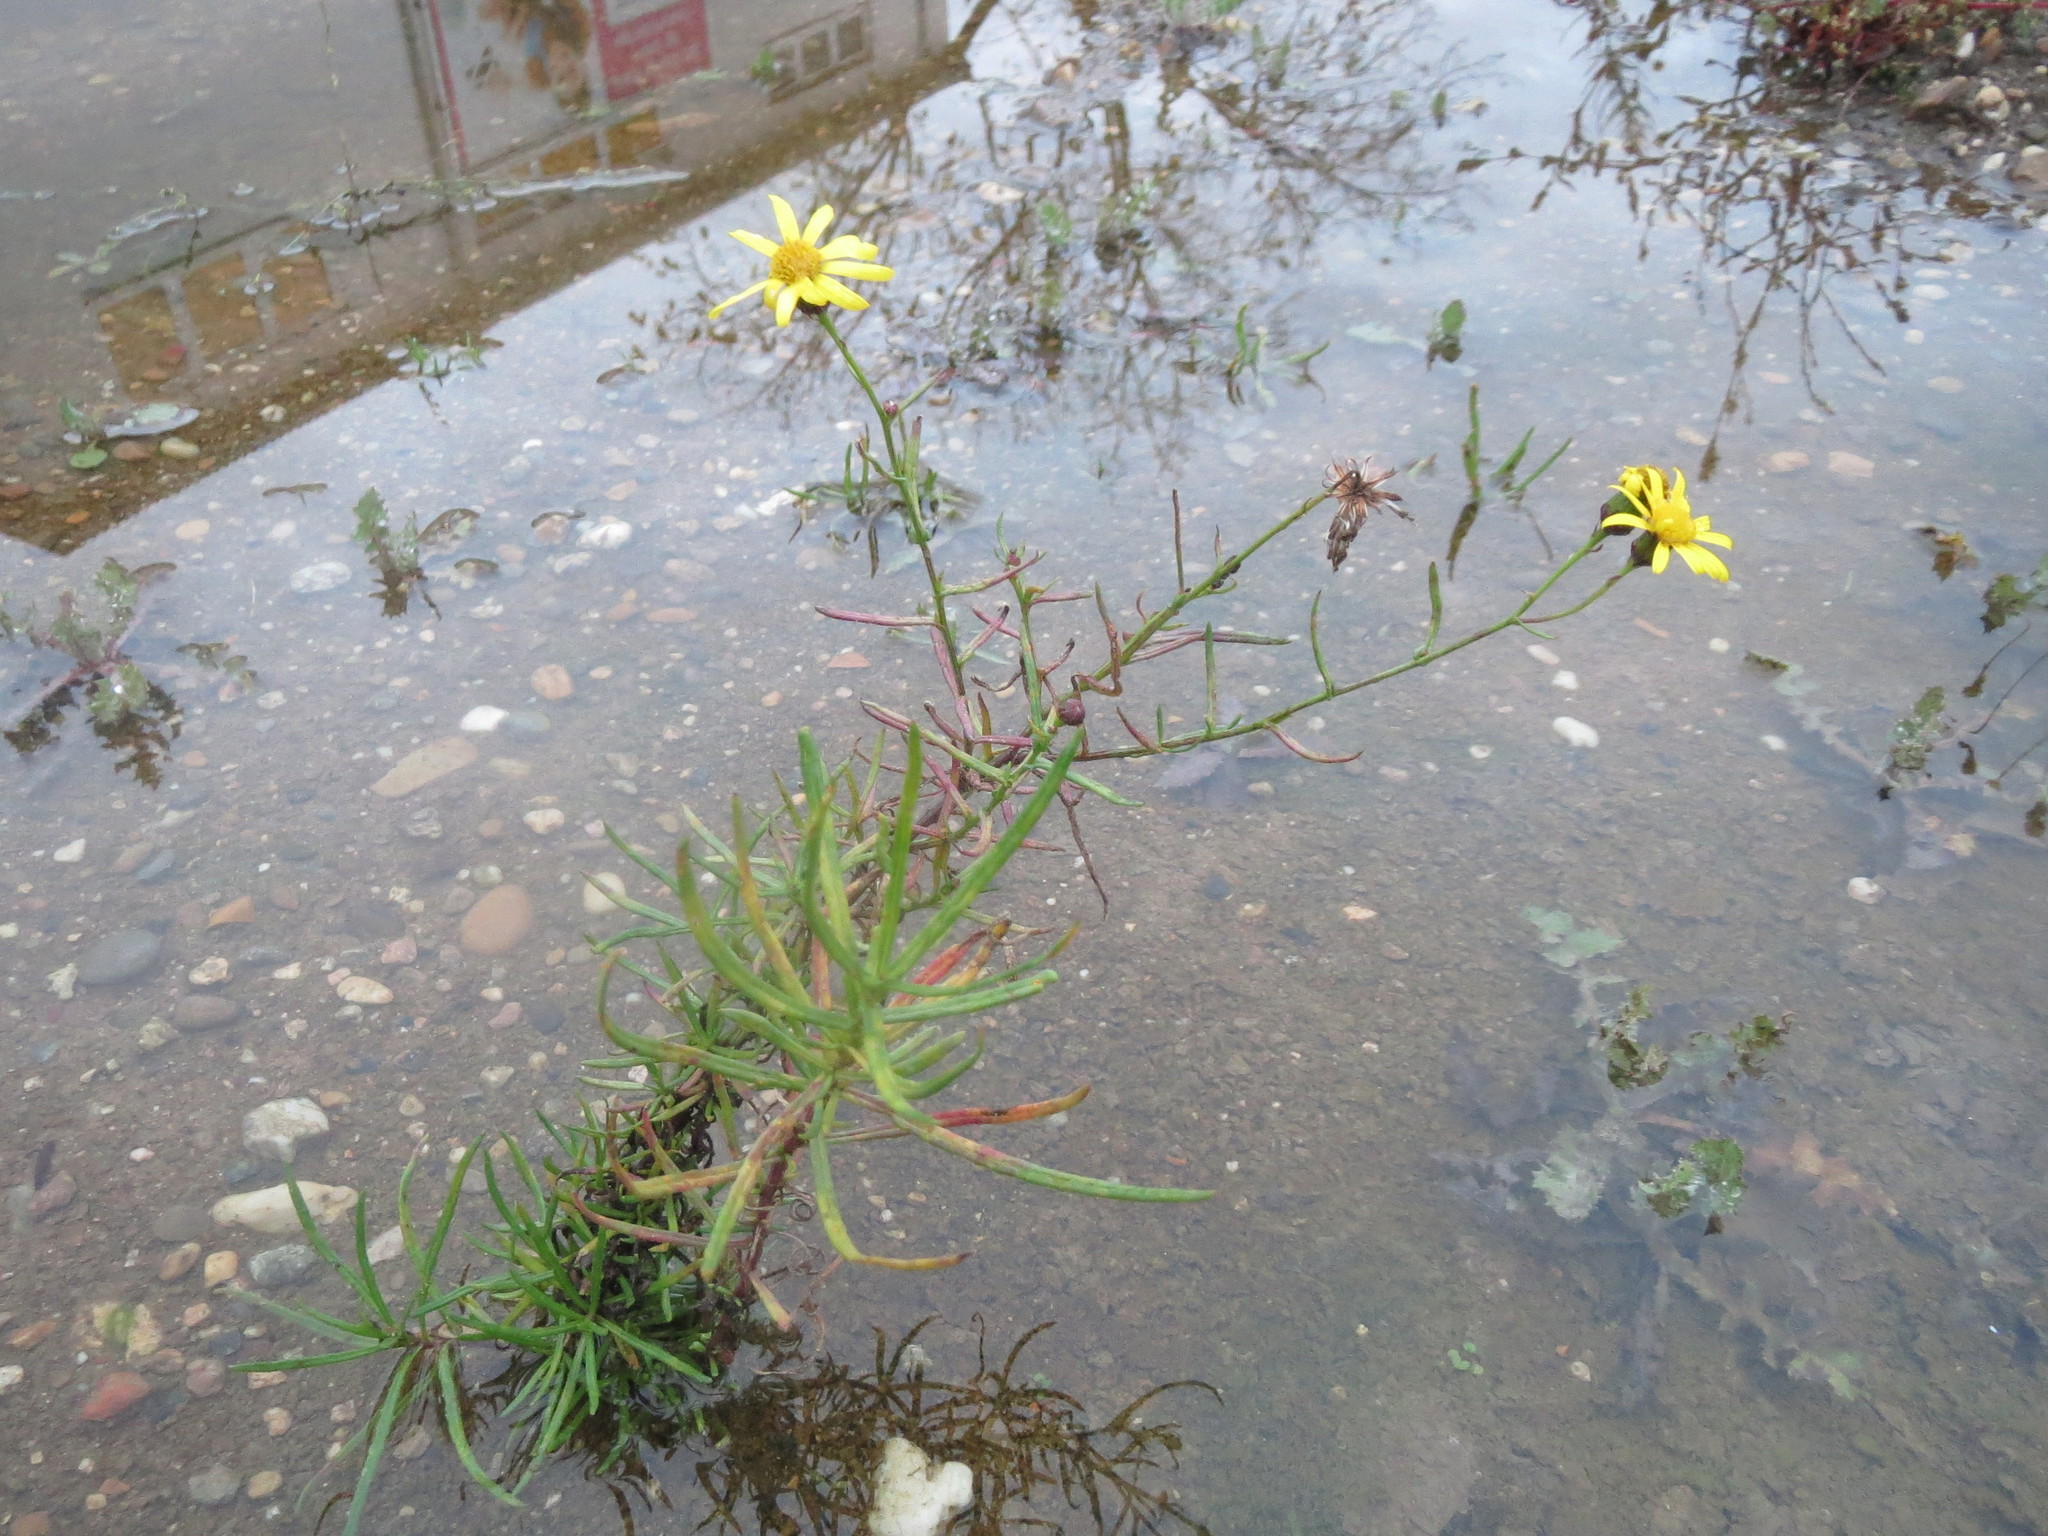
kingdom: Plantae
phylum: Tracheophyta
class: Magnoliopsida
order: Asterales
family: Asteraceae
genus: Senecio
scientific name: Senecio inaequidens
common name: Narrow-leaved ragwort
